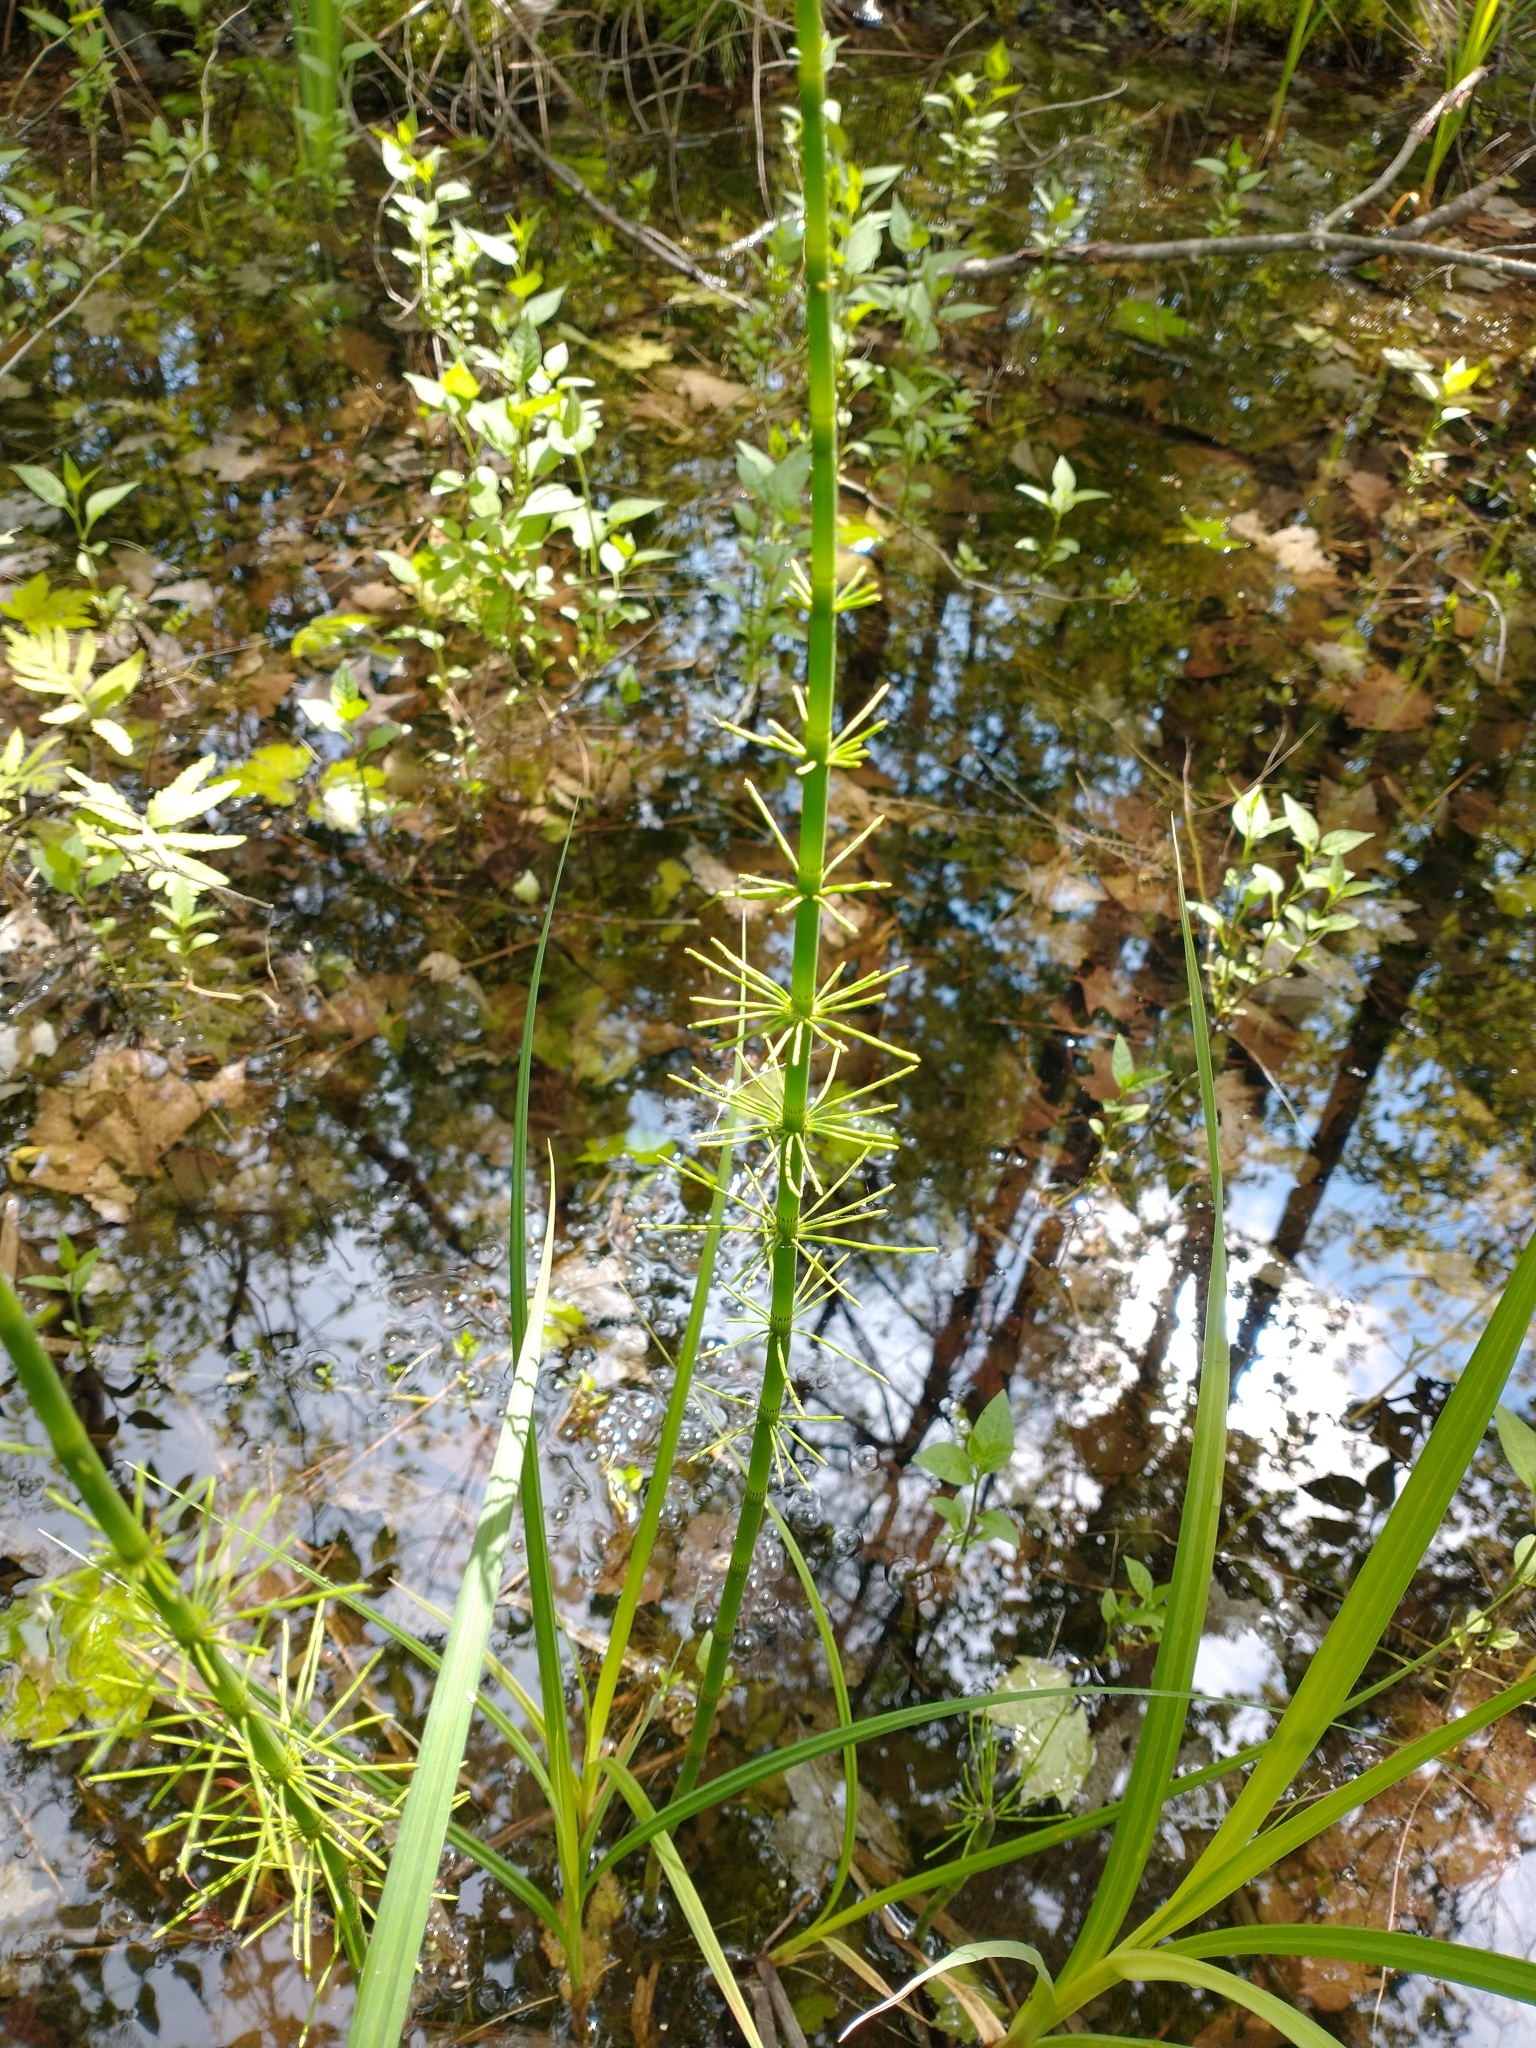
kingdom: Plantae
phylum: Tracheophyta
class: Polypodiopsida
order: Equisetales
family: Equisetaceae
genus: Equisetum
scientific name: Equisetum fluviatile
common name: Water horsetail
